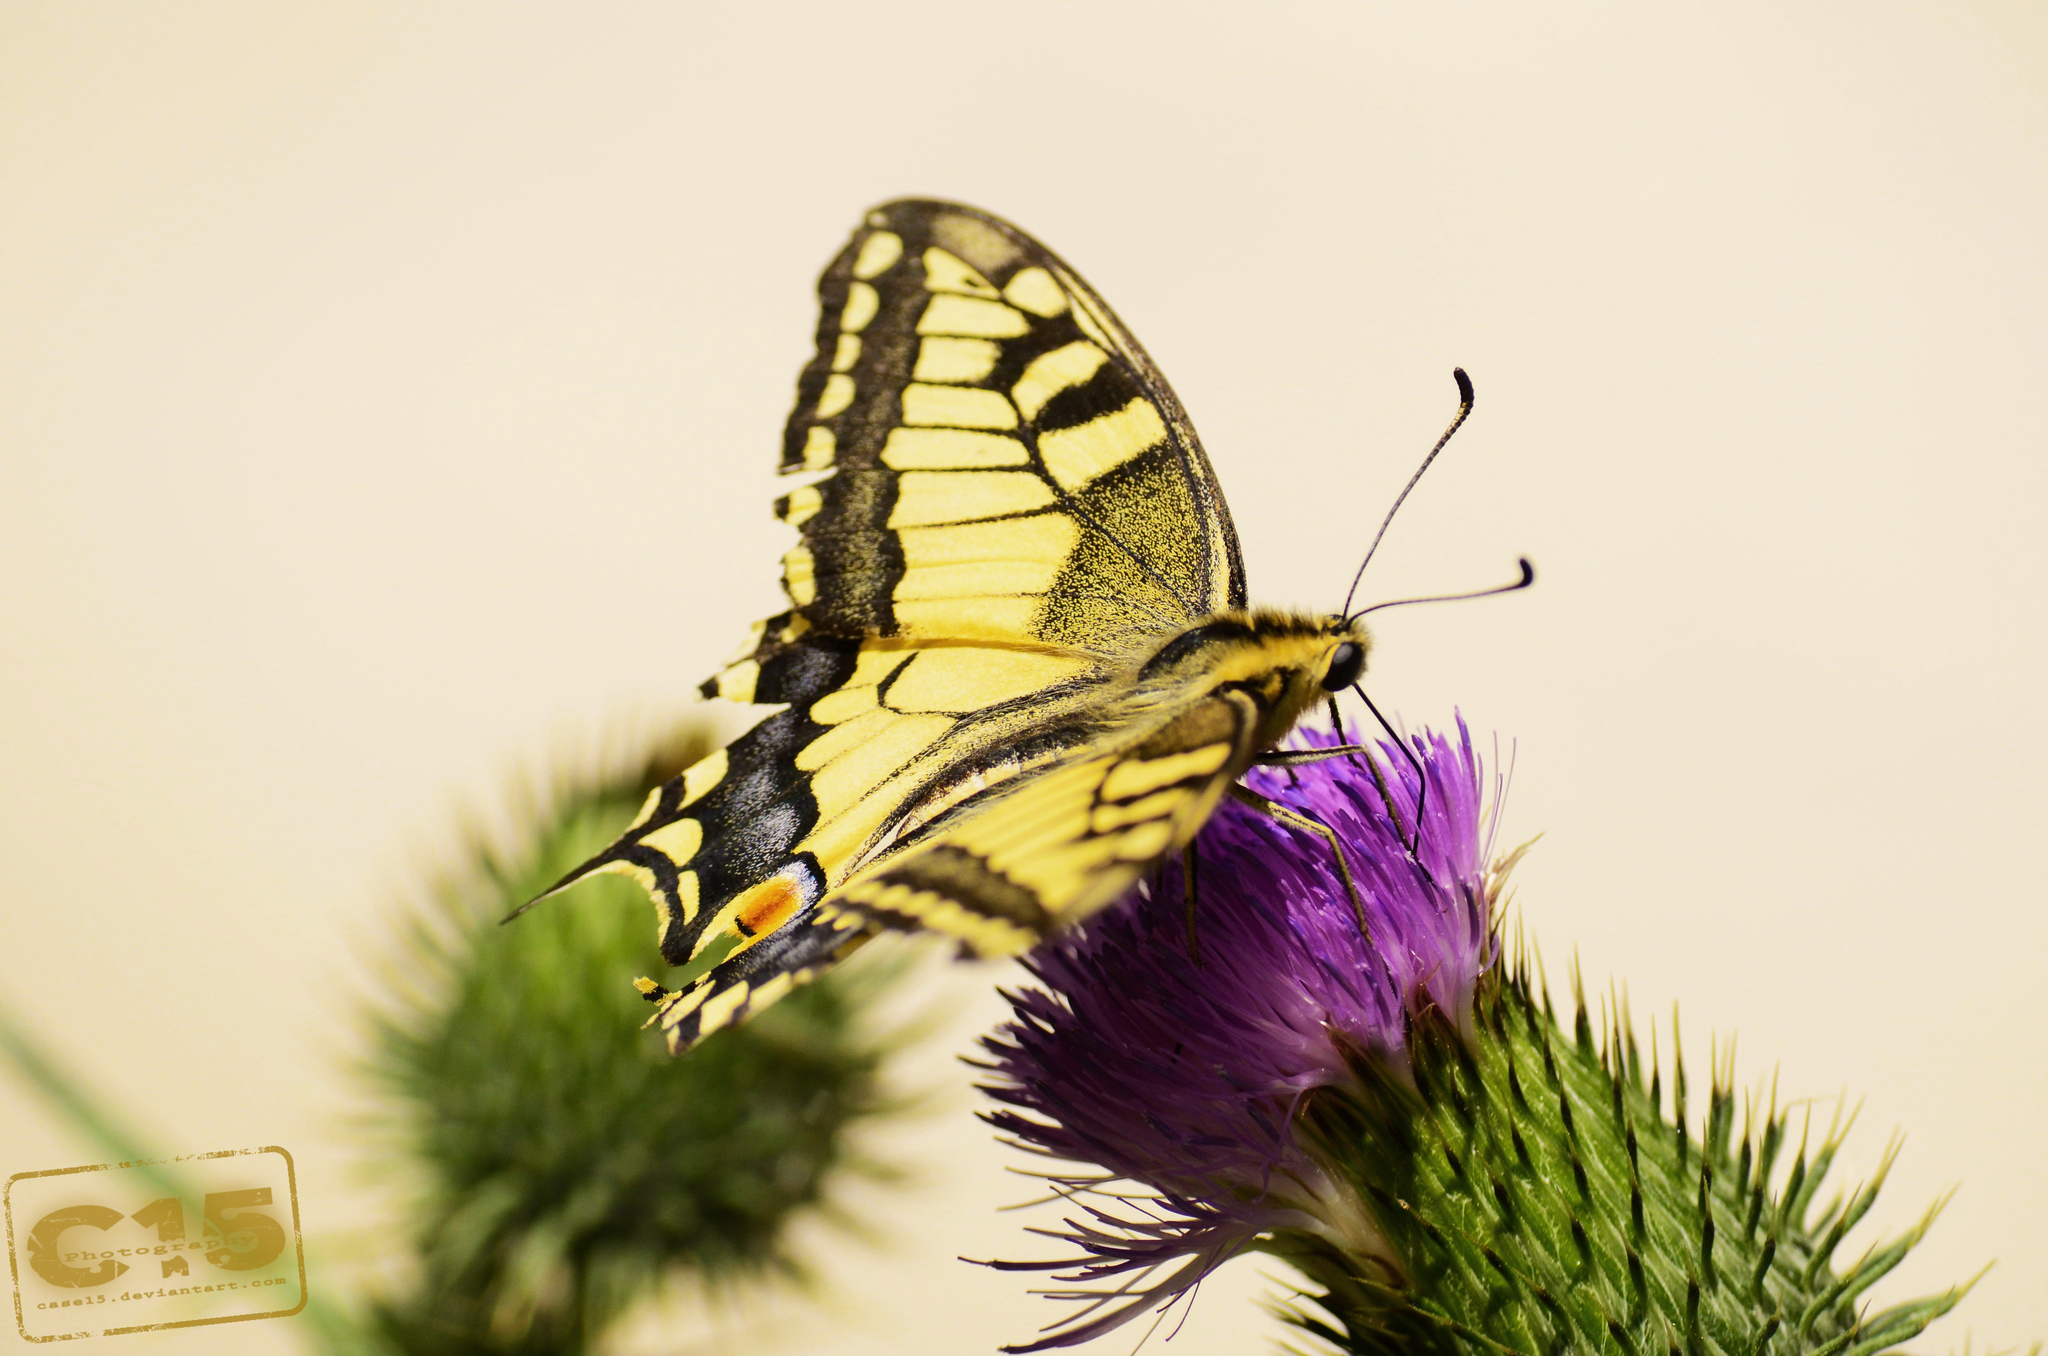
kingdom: Animalia
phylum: Arthropoda
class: Insecta
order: Lepidoptera
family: Papilionidae
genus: Papilio
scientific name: Papilio machaon
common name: Swallowtail
